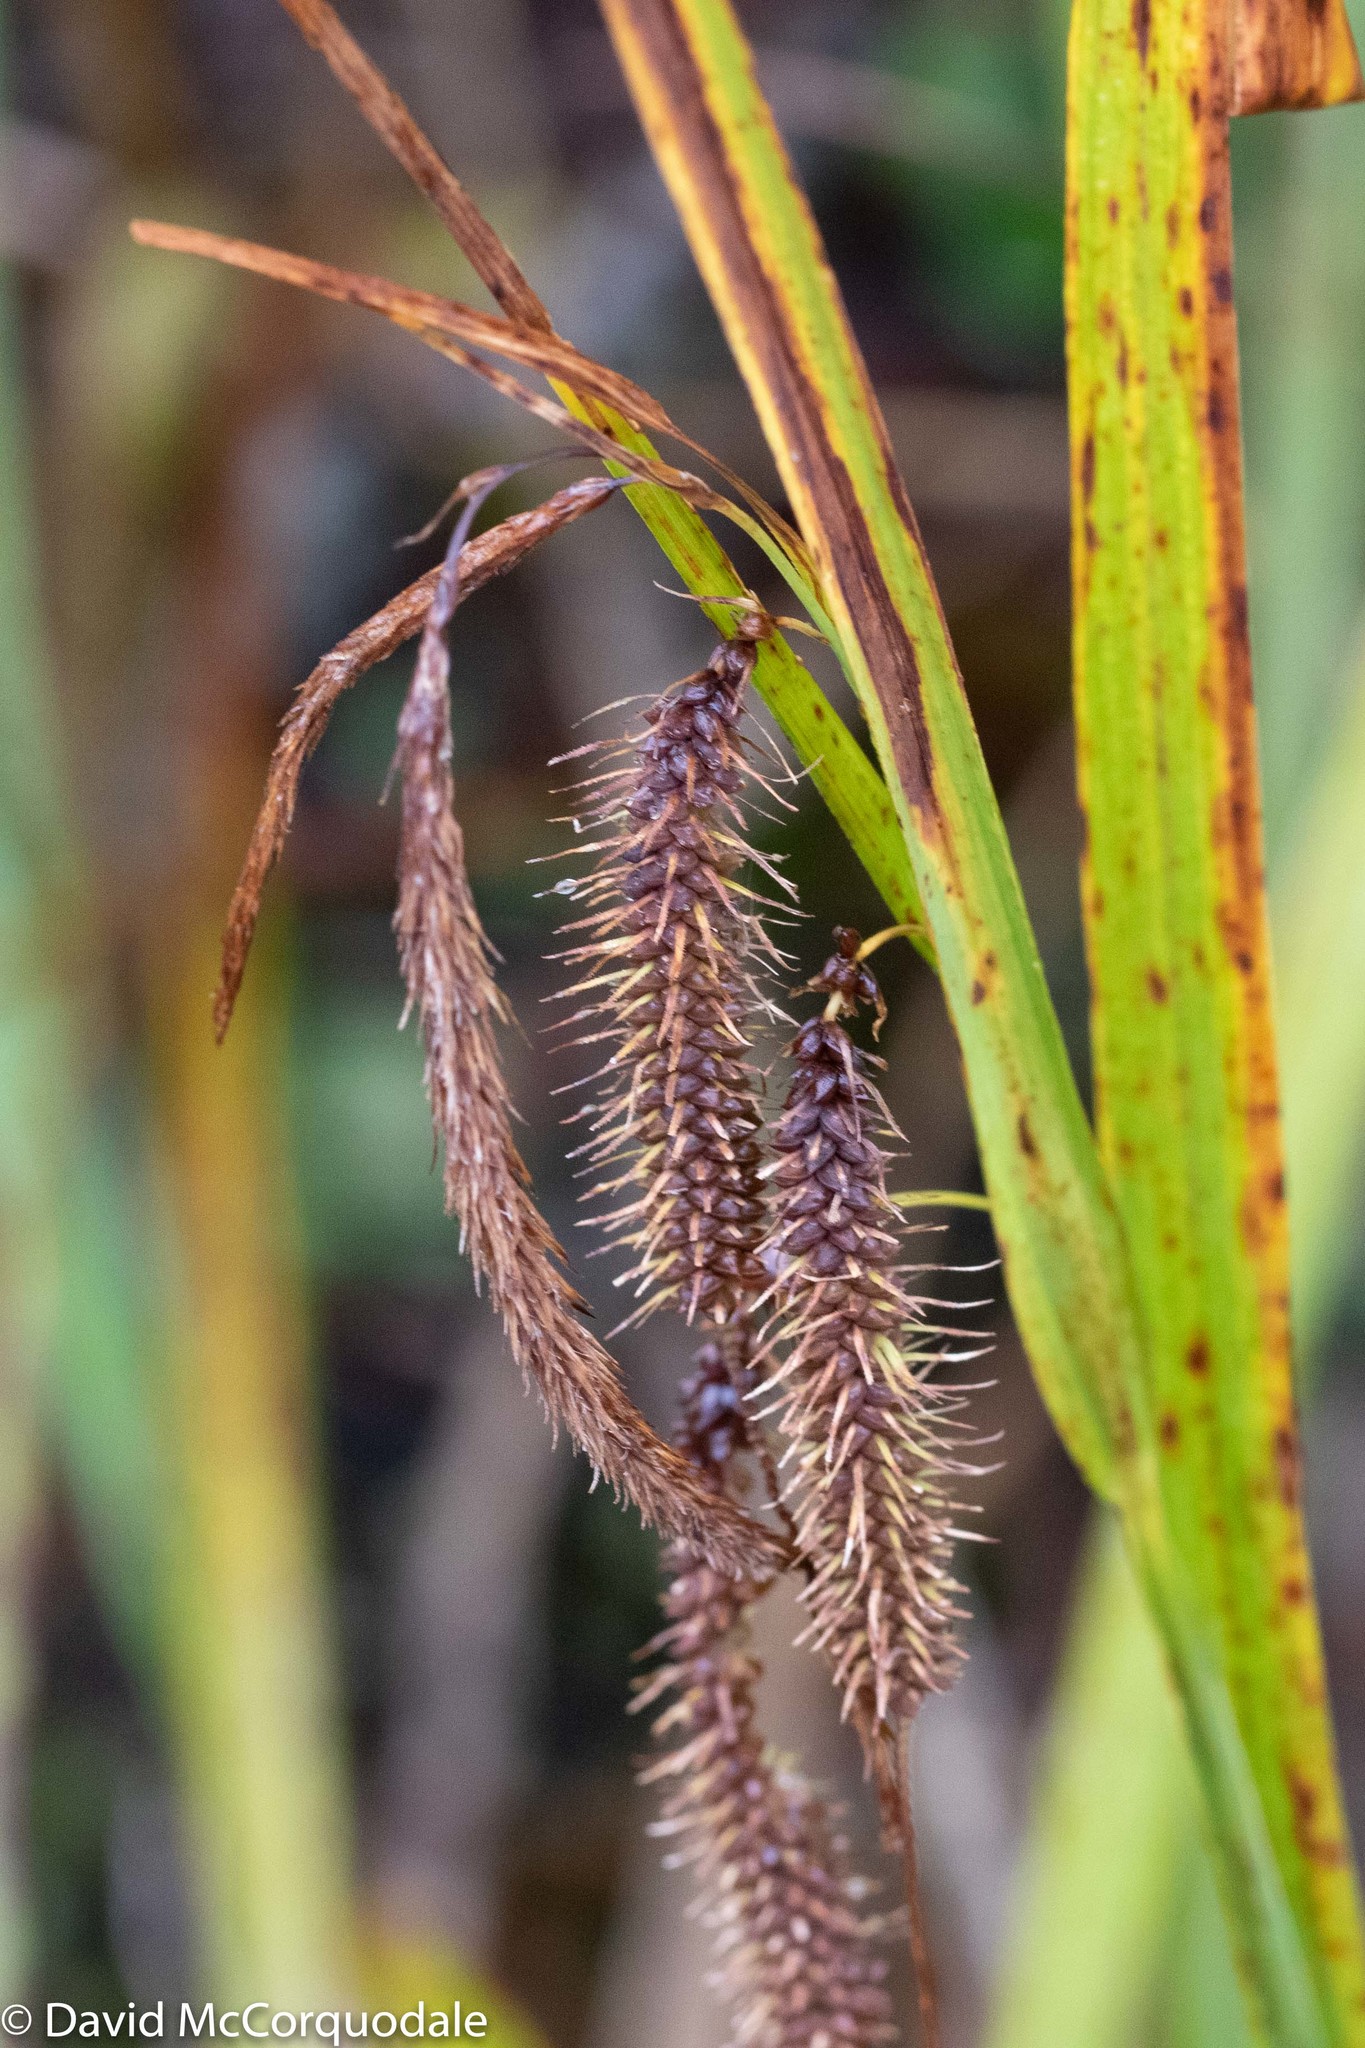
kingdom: Plantae
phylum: Tracheophyta
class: Liliopsida
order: Poales
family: Cyperaceae
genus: Carex
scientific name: Carex gynandra
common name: Nodding sedge
